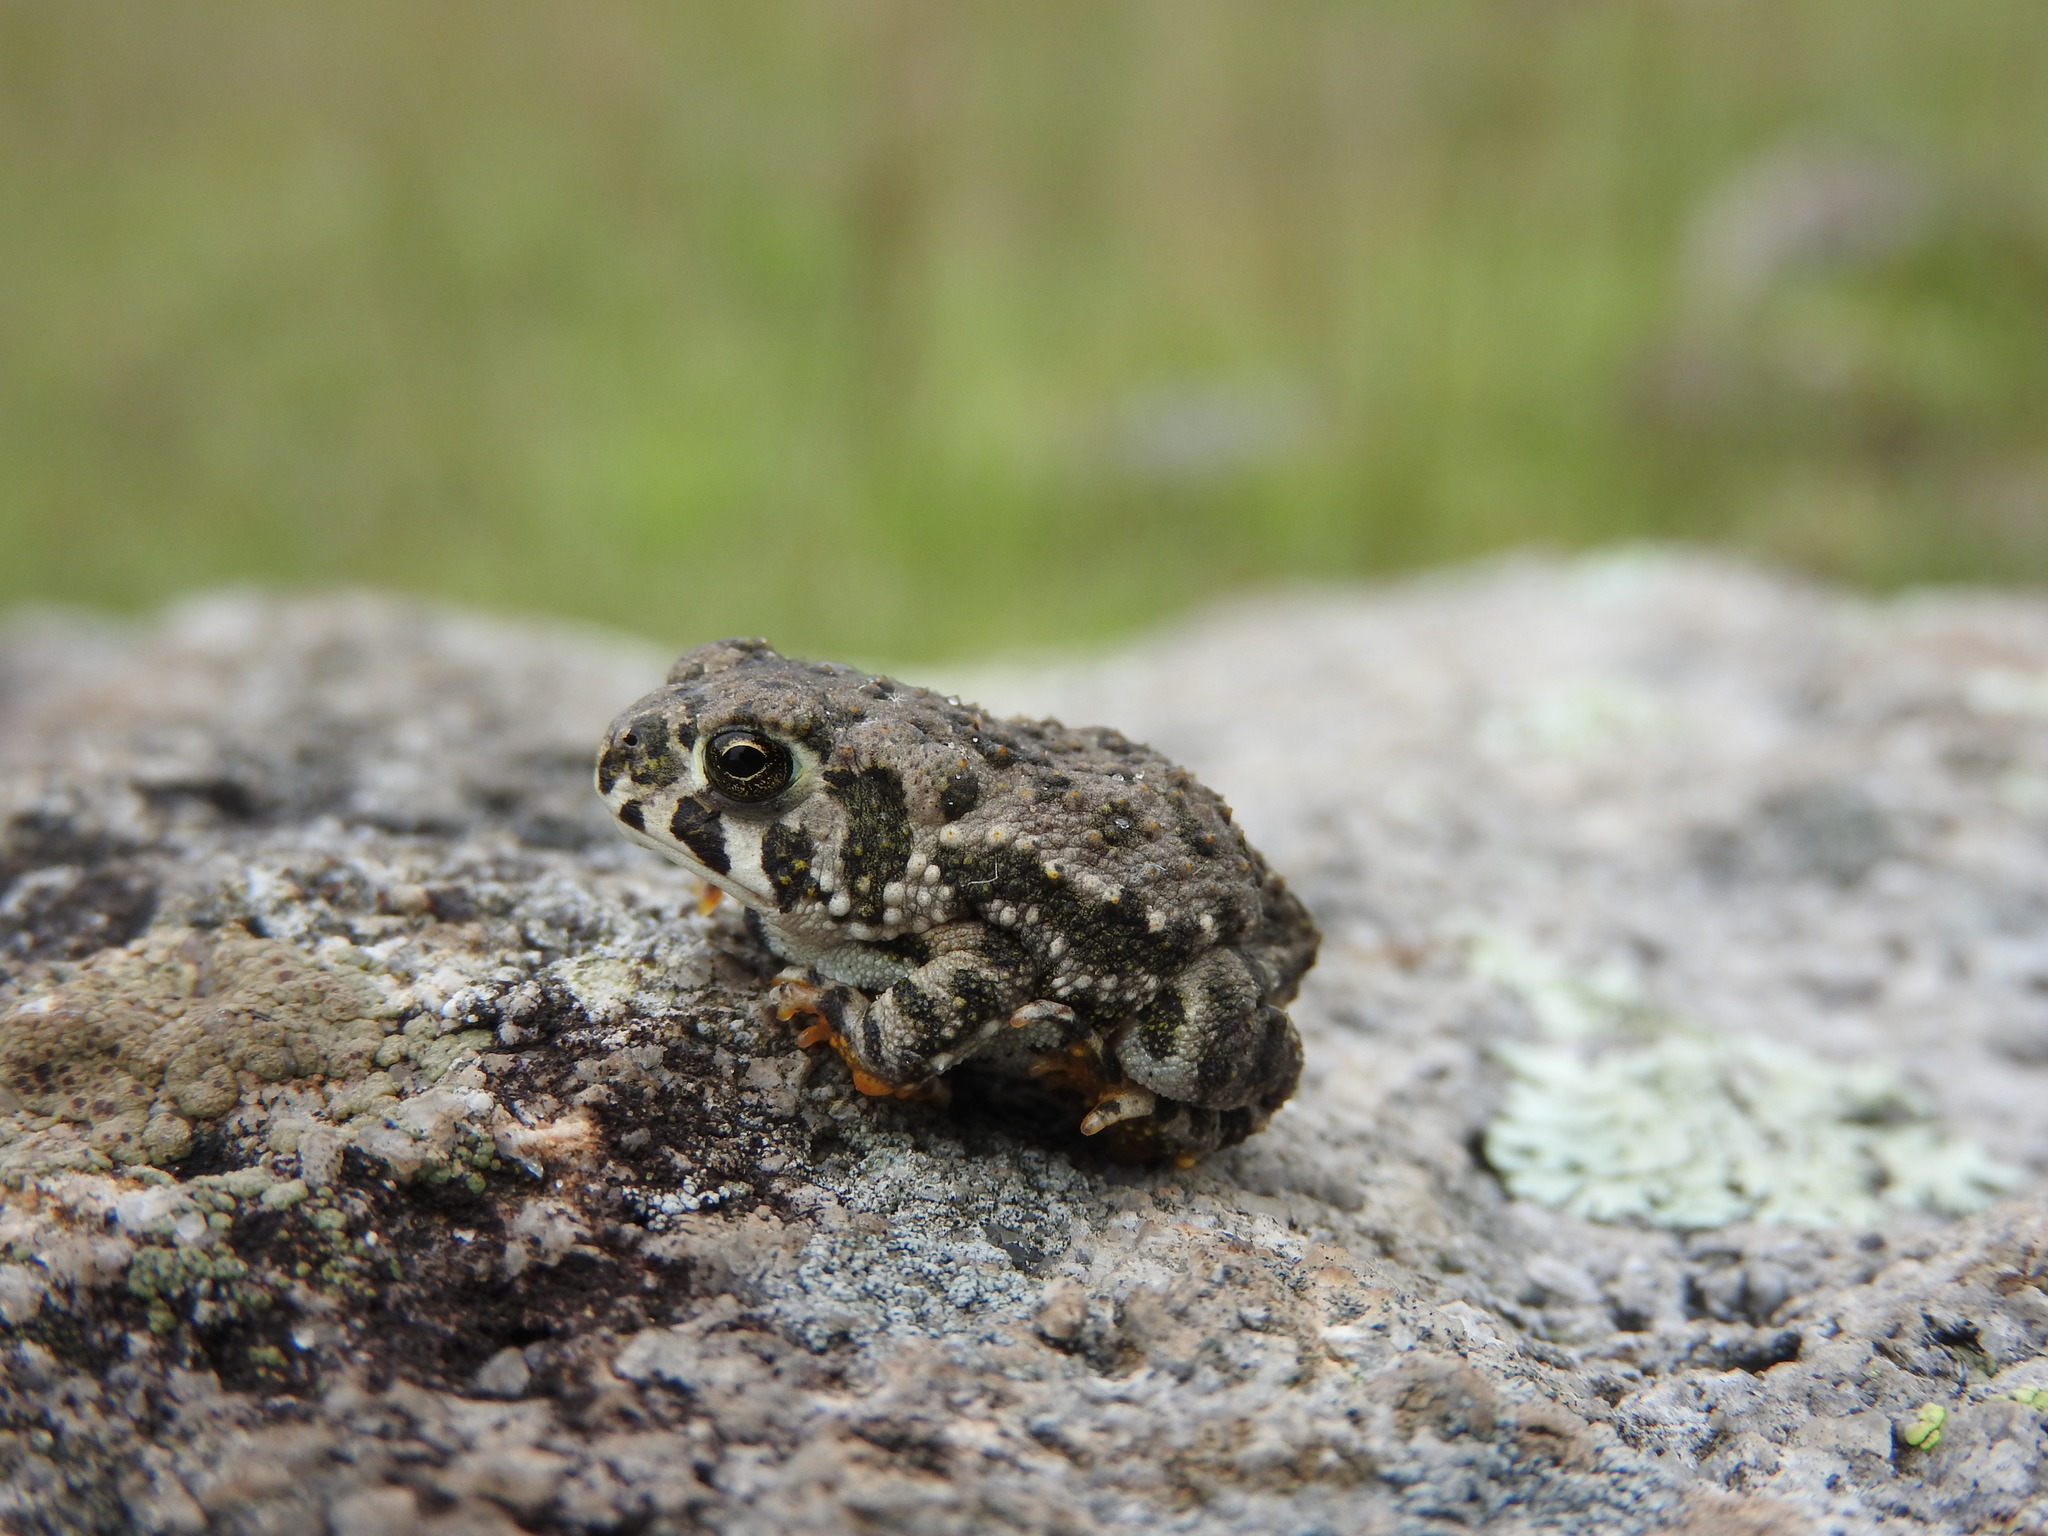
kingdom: Animalia
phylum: Chordata
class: Amphibia
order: Anura
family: Bufonidae
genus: Anaxyrus
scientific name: Anaxyrus compactilis
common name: Plateau toad
